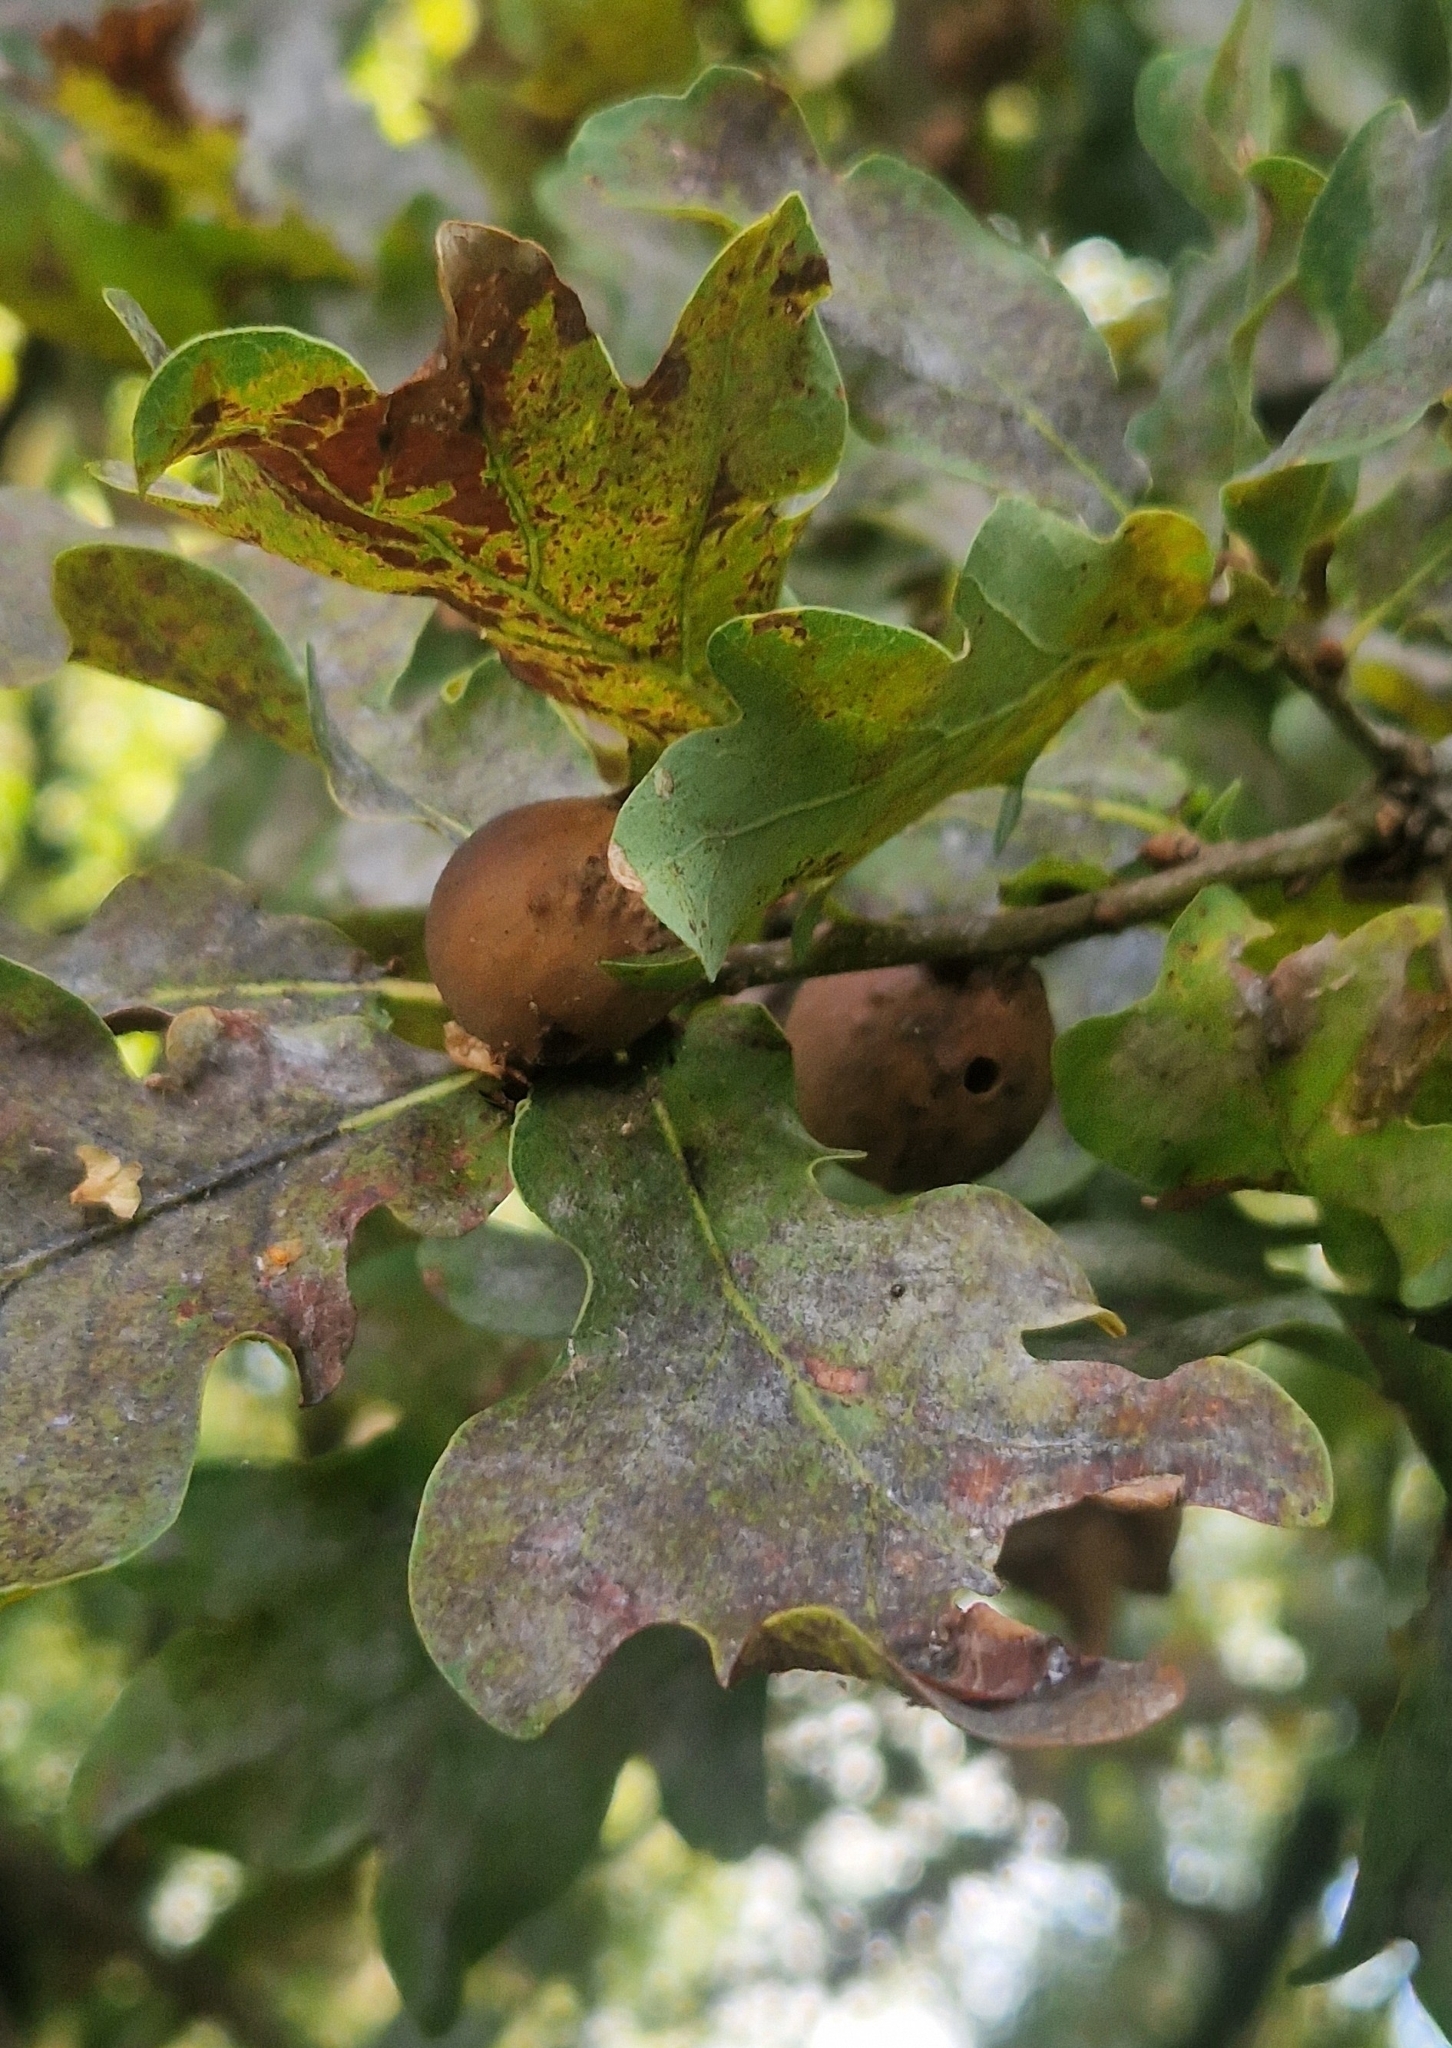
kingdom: Animalia
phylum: Arthropoda
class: Insecta
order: Hymenoptera
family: Cynipidae
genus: Andricus
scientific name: Andricus kollari
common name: Marble gall
